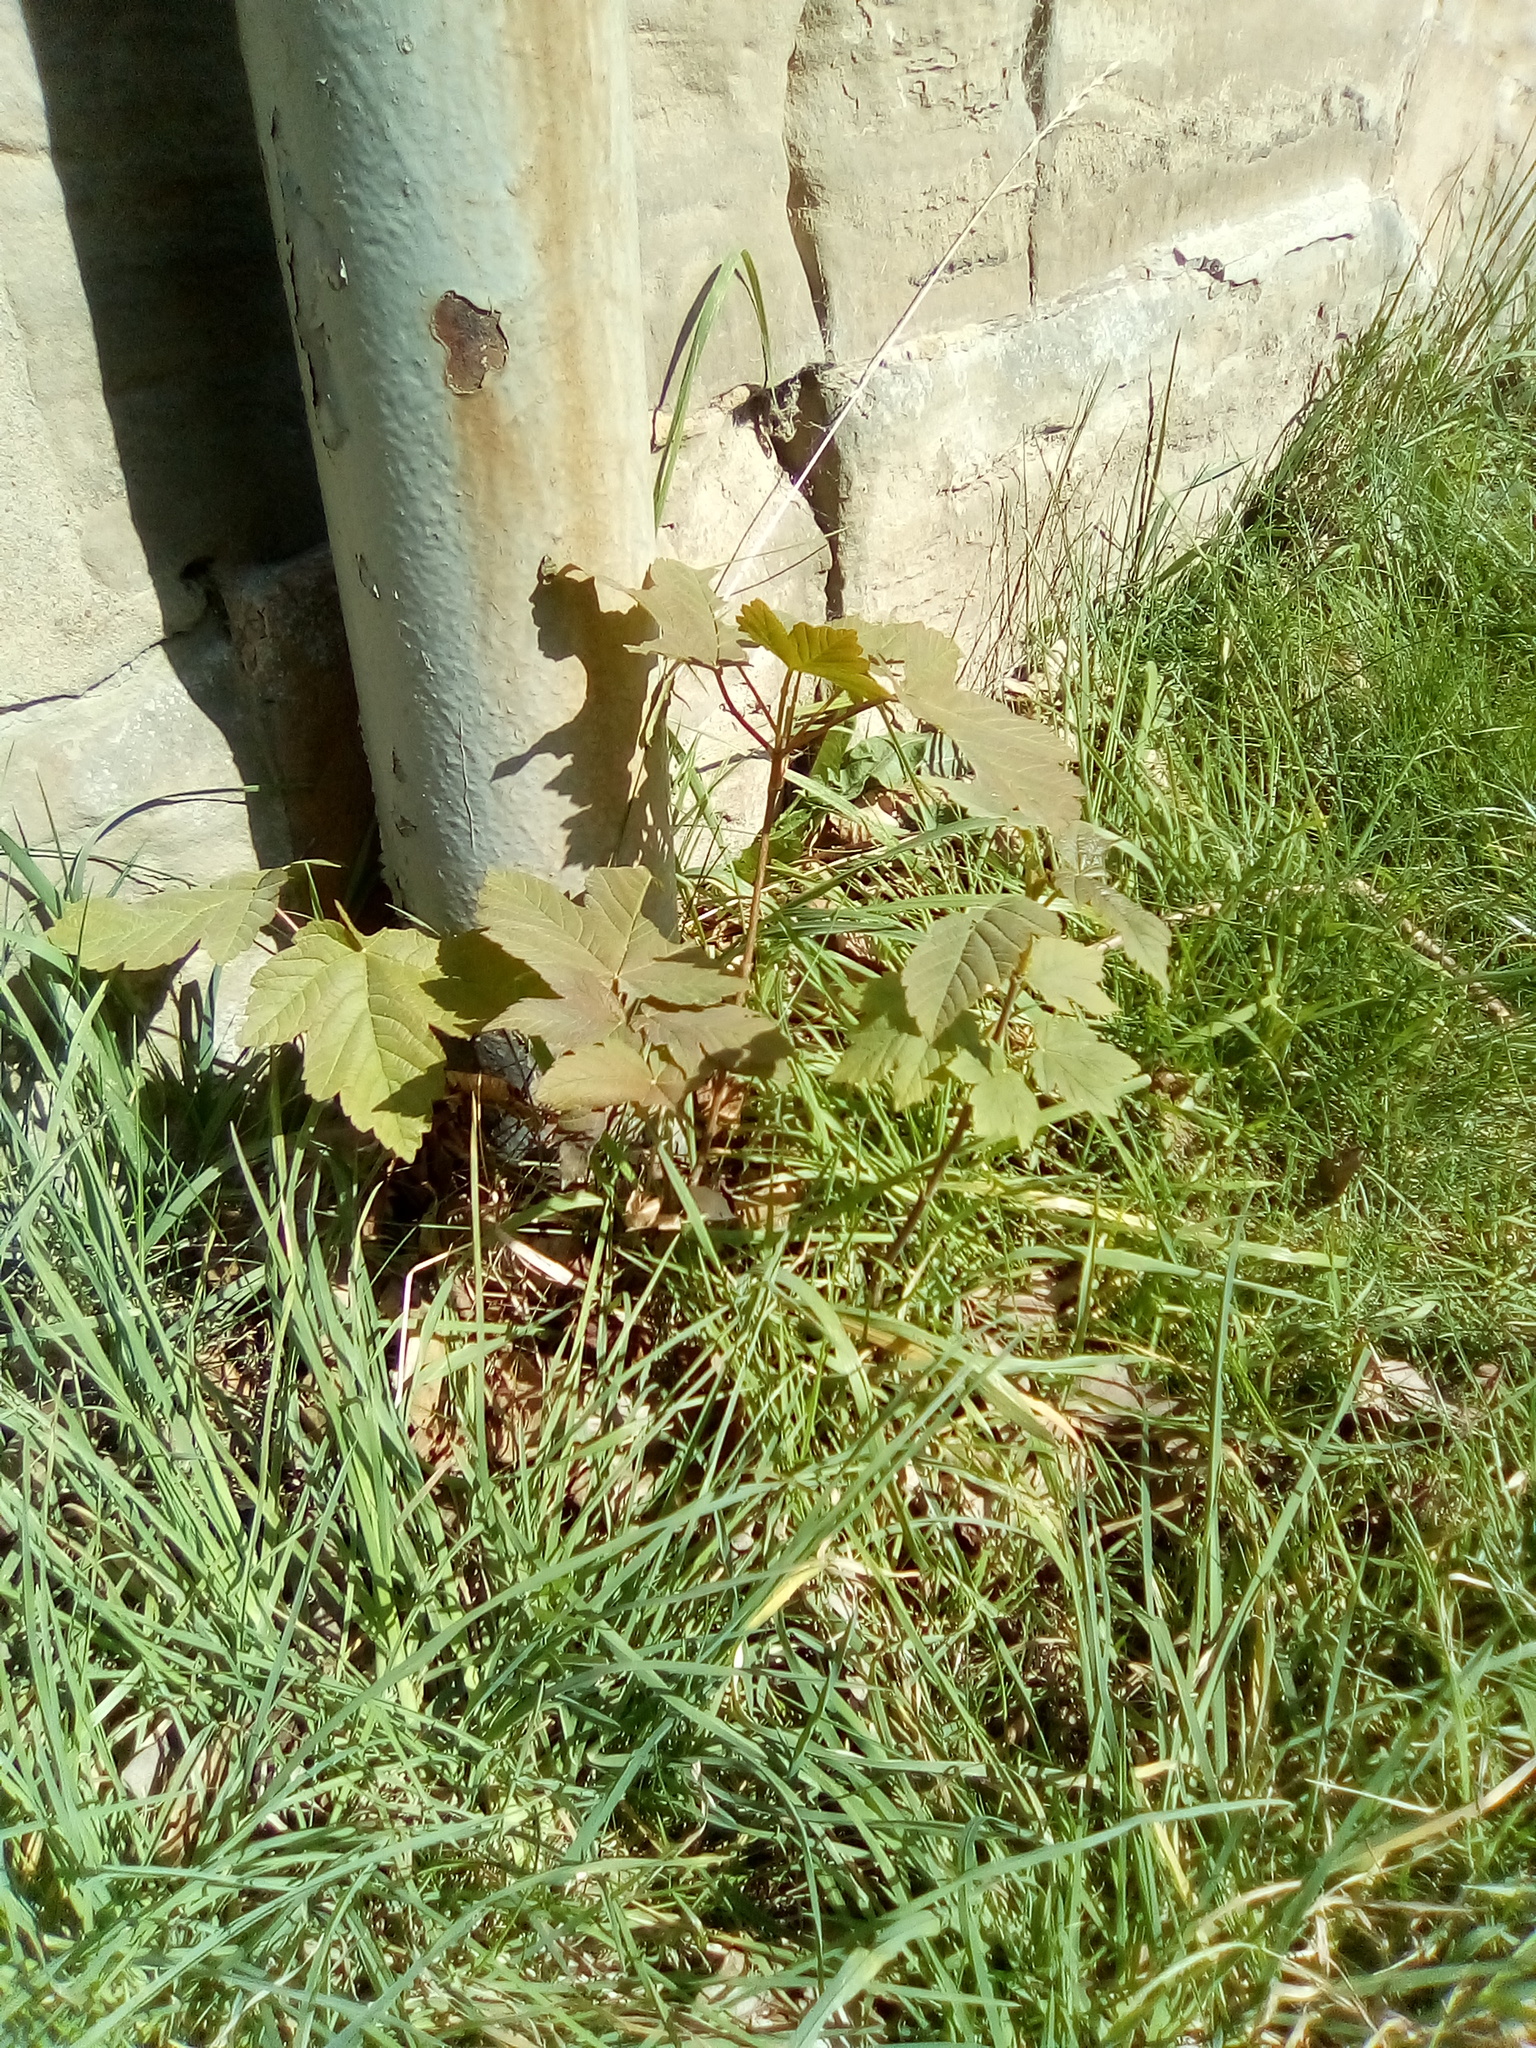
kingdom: Plantae
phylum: Tracheophyta
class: Magnoliopsida
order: Sapindales
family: Sapindaceae
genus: Acer
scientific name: Acer pseudoplatanus
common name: Sycamore
